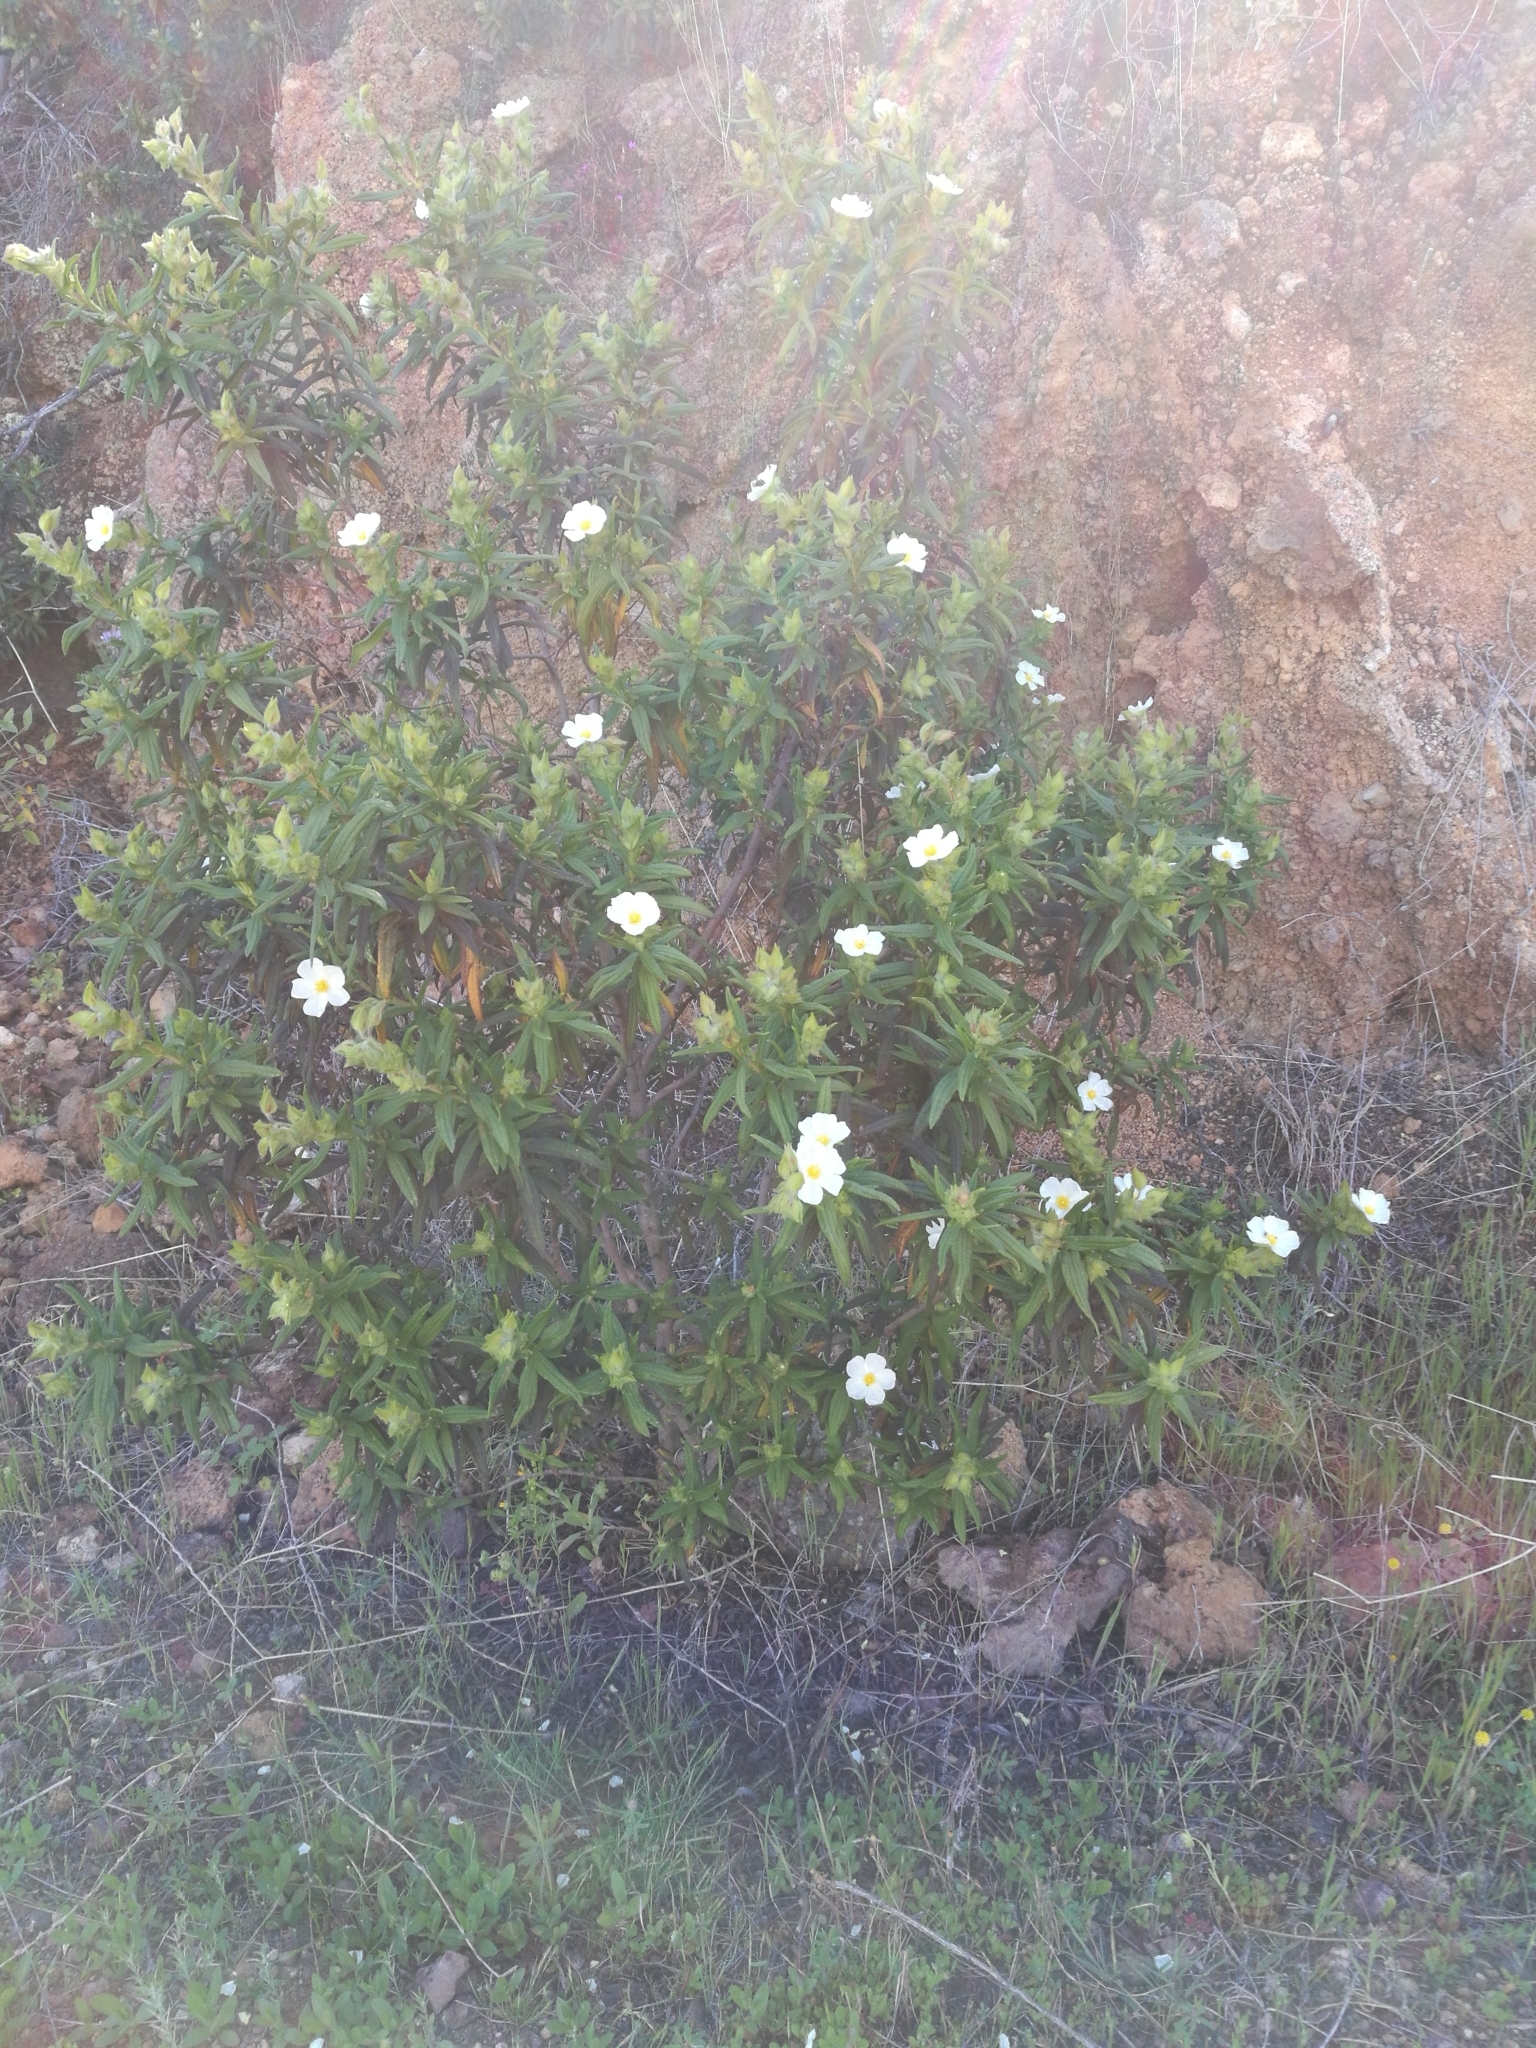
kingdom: Plantae
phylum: Tracheophyta
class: Magnoliopsida
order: Malvales
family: Cistaceae
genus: Cistus
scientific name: Cistus monspeliensis
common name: Montpelier cistus
